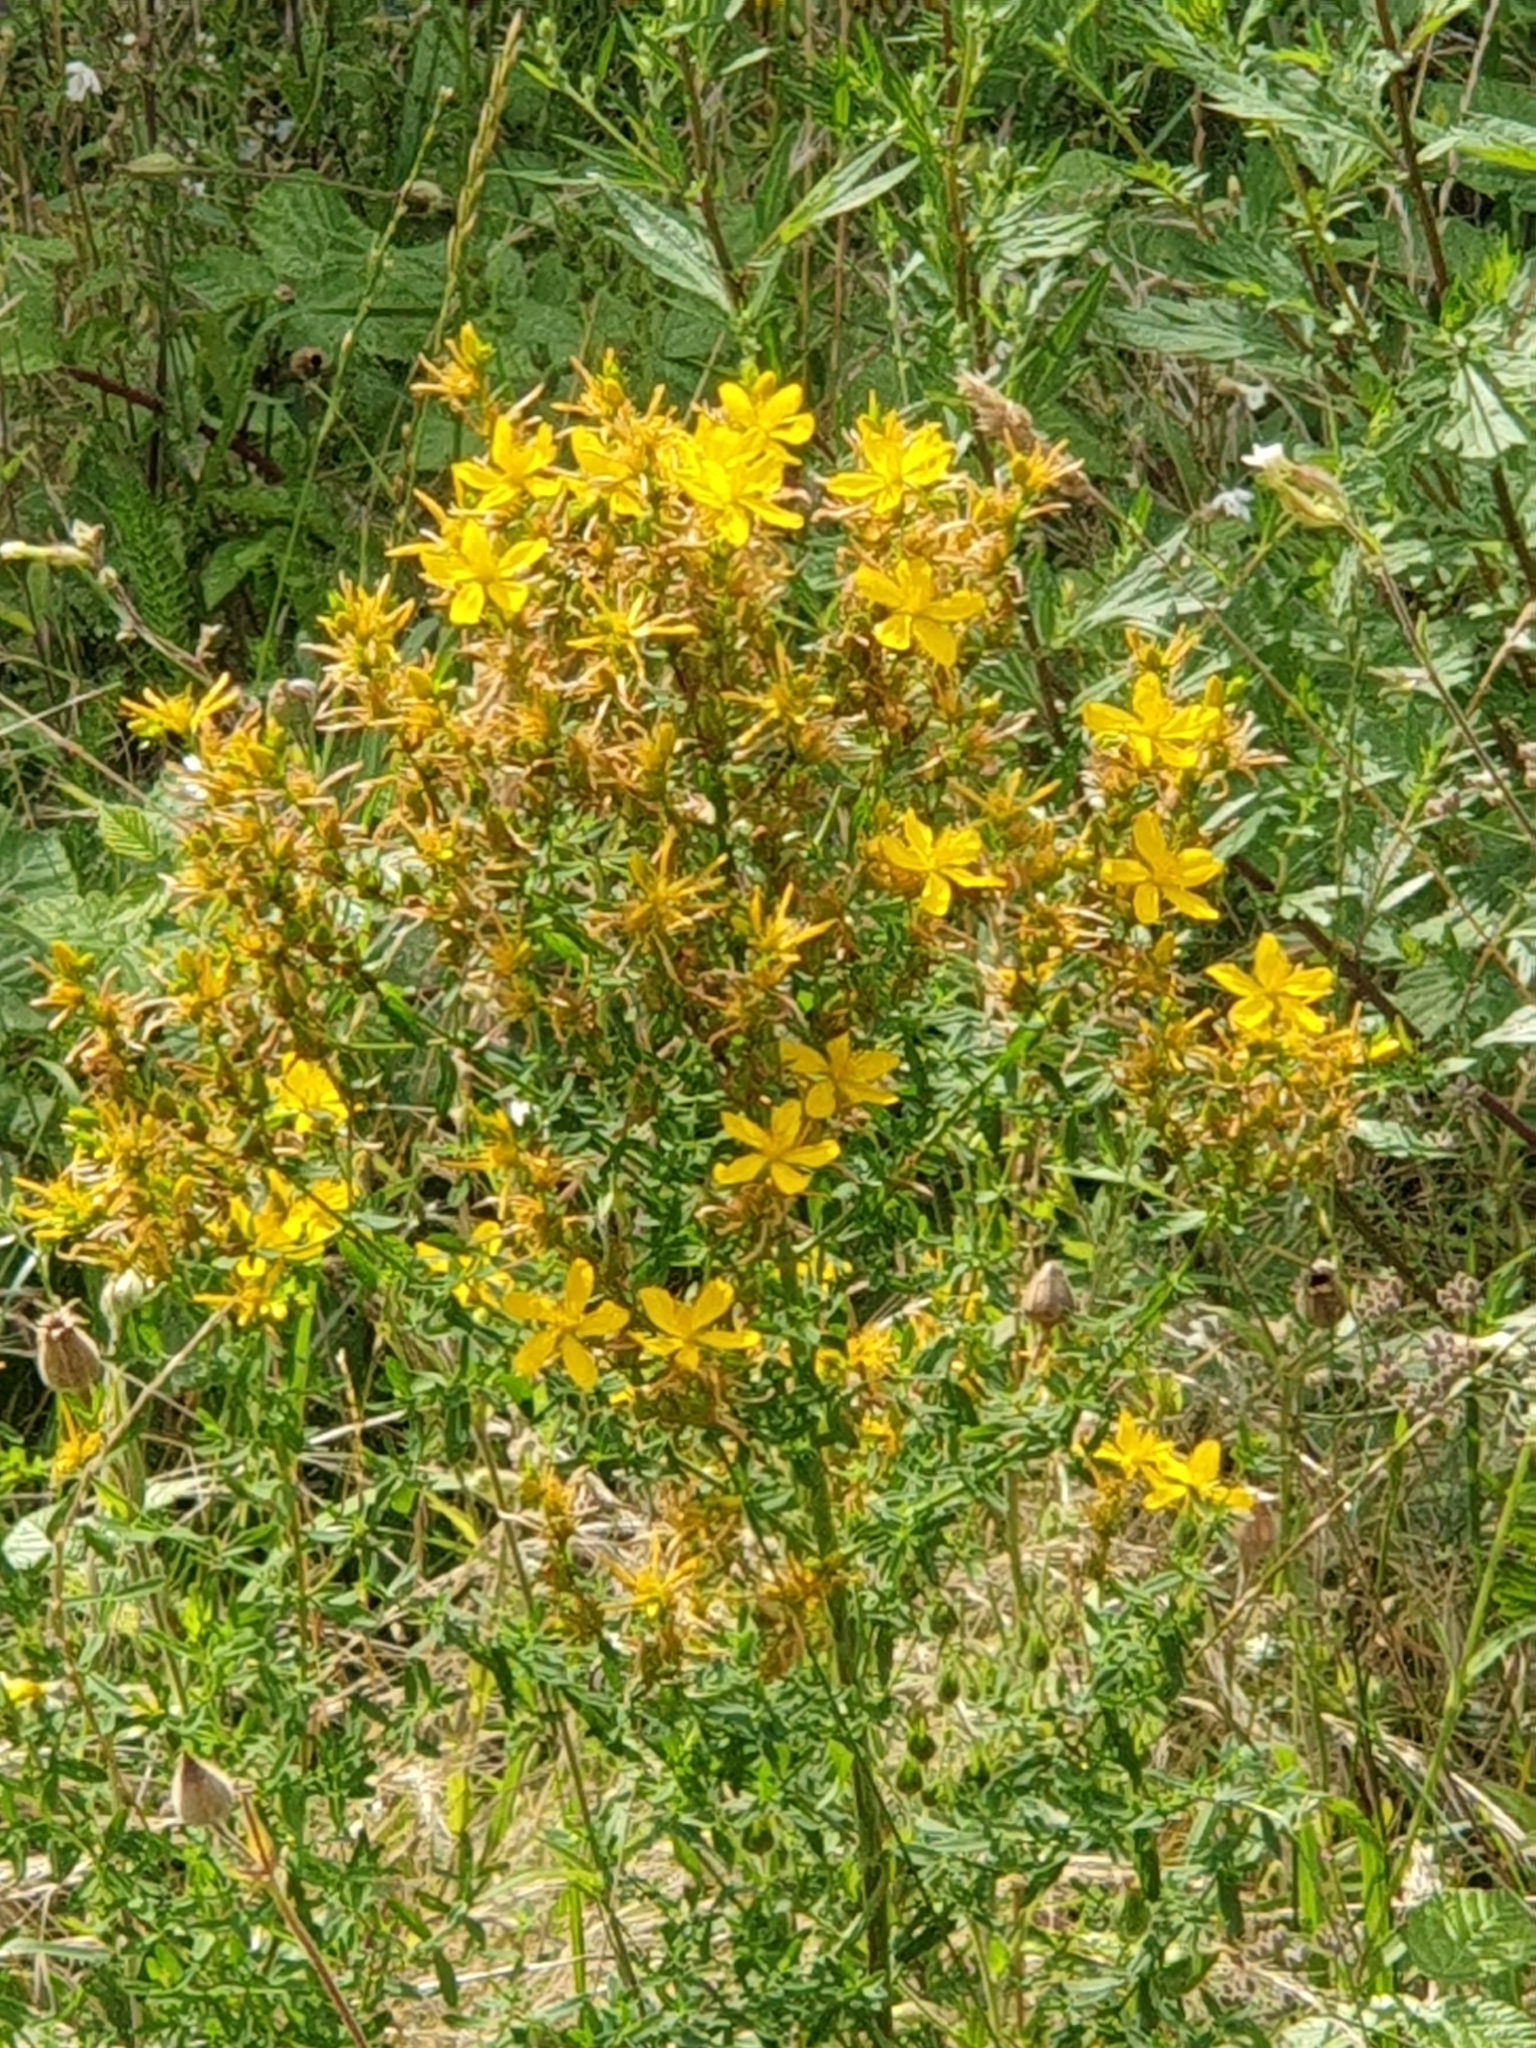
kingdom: Plantae
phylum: Tracheophyta
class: Magnoliopsida
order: Malpighiales
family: Hypericaceae
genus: Hypericum
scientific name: Hypericum perforatum
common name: Common st. johnswort
